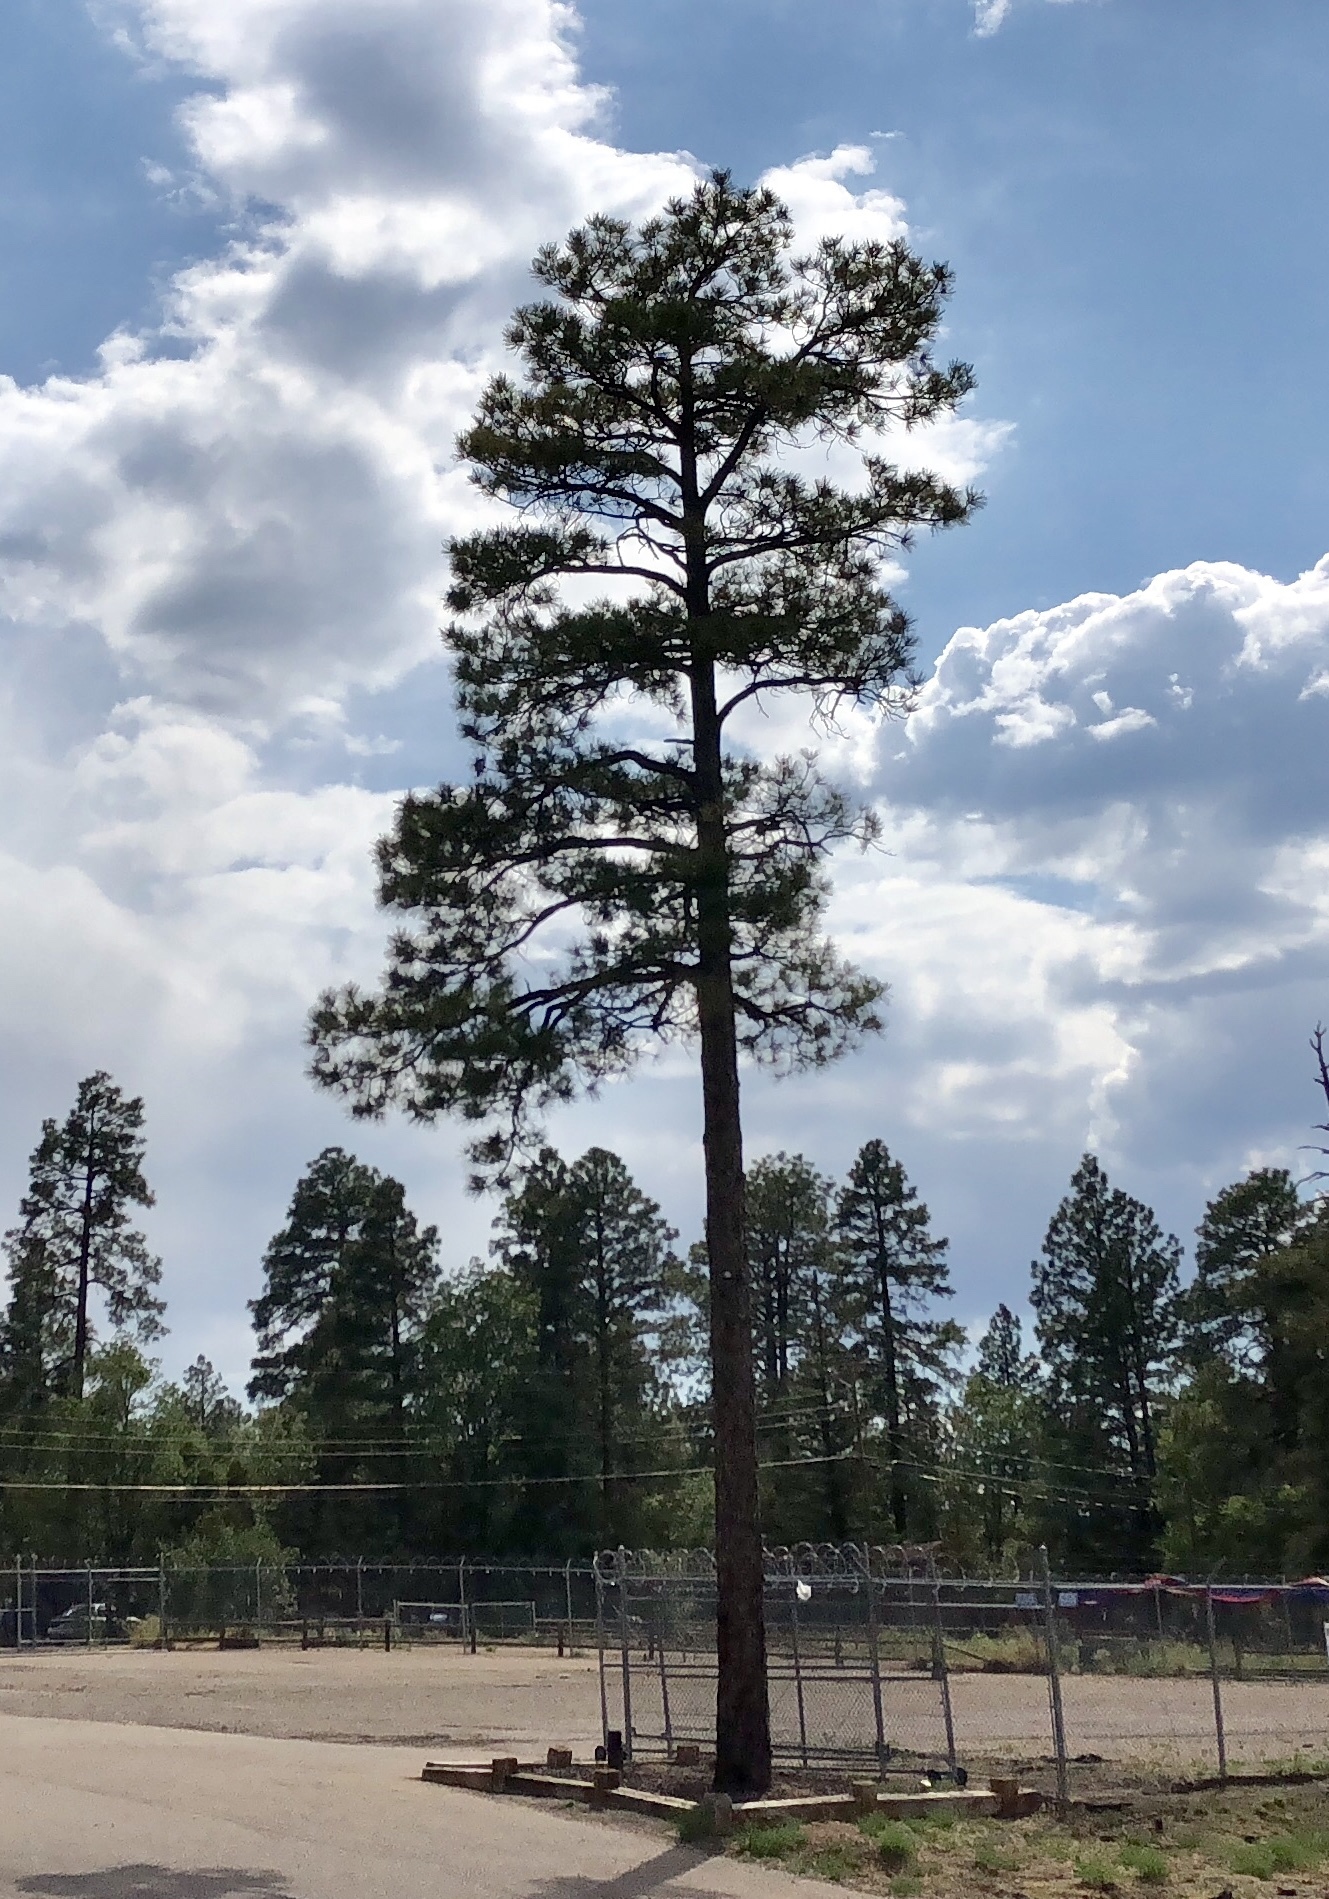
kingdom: Plantae
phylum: Tracheophyta
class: Pinopsida
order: Pinales
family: Pinaceae
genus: Pinus
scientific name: Pinus ponderosa
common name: Western yellow-pine
